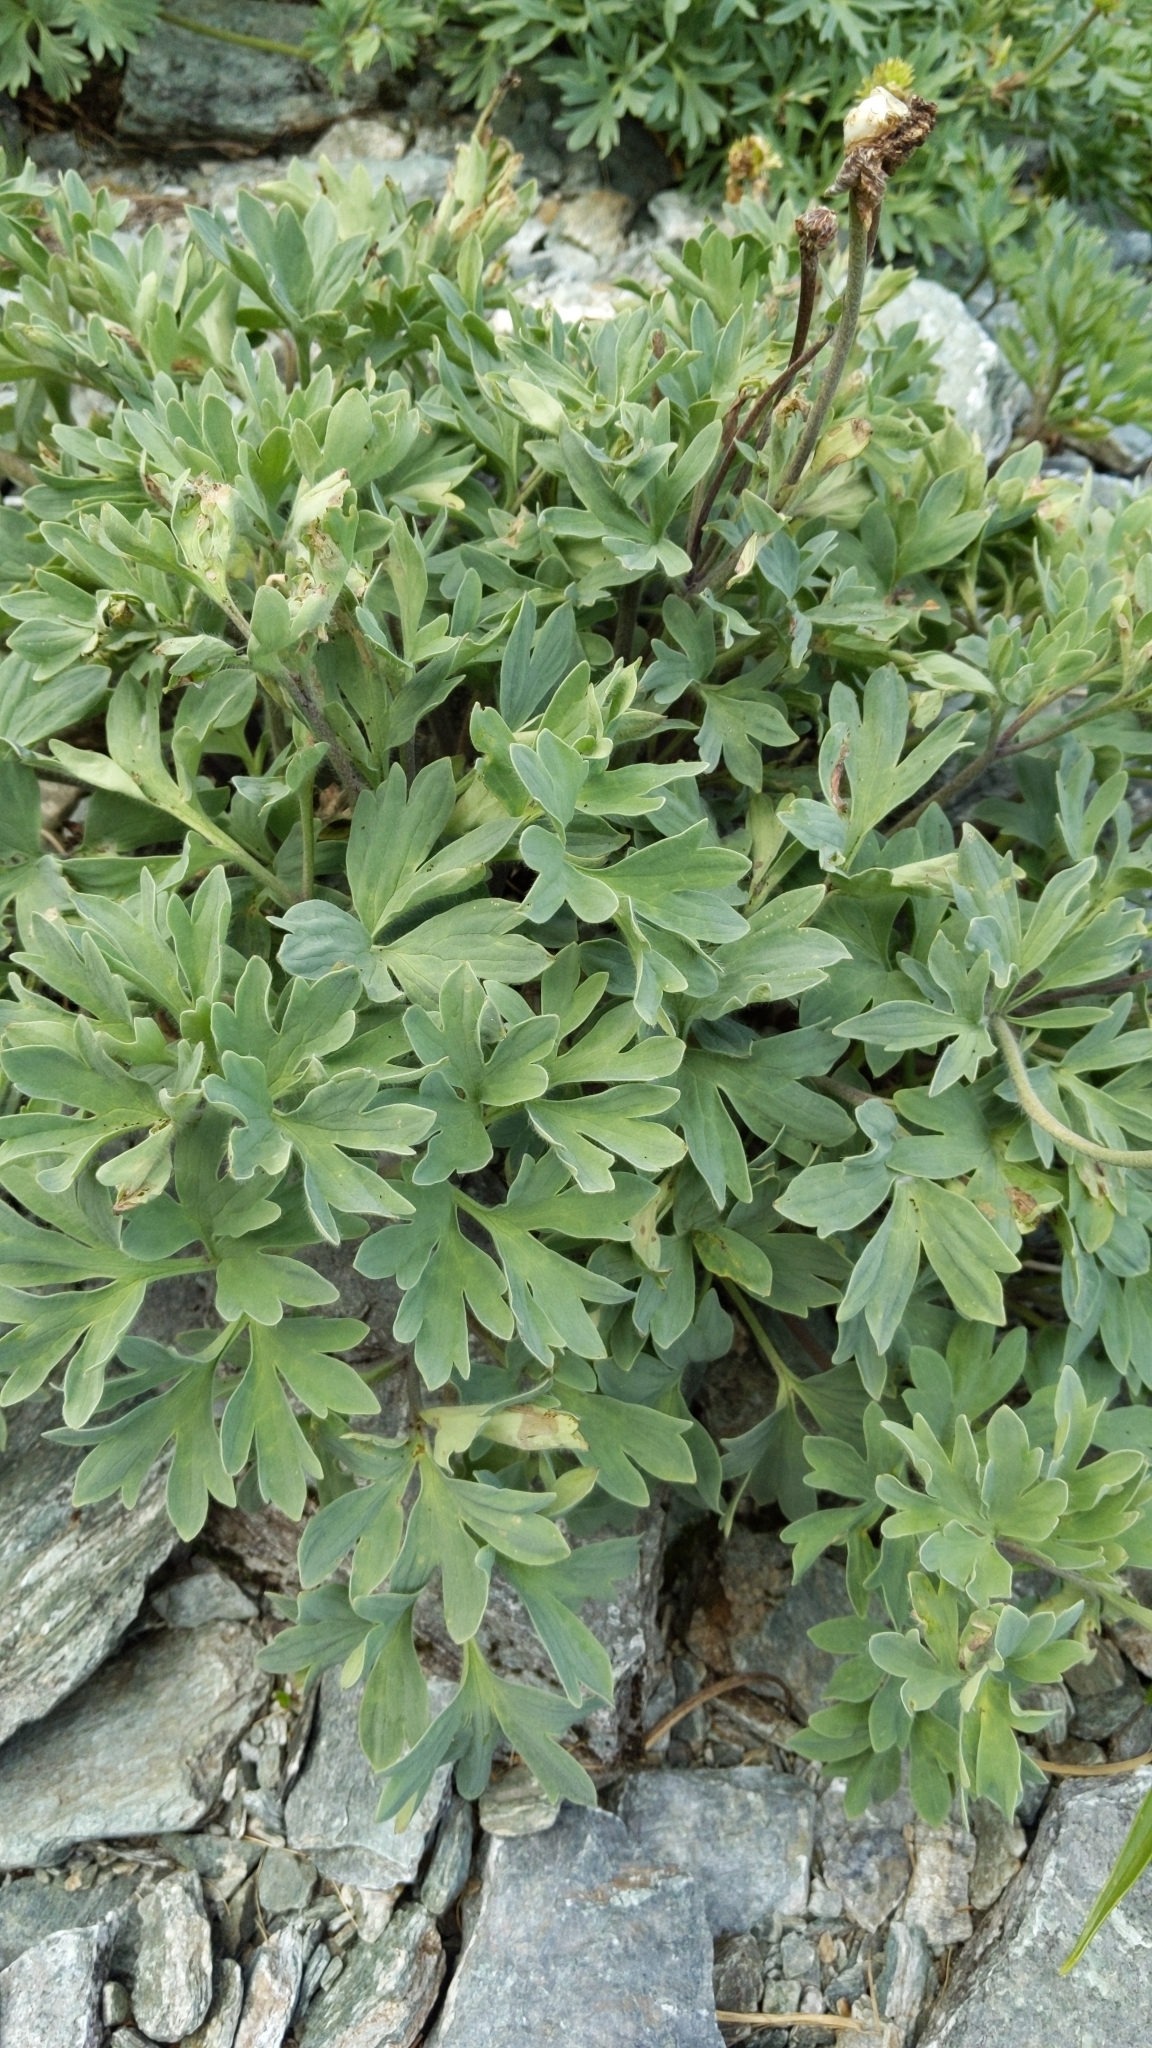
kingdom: Plantae
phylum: Tracheophyta
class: Magnoliopsida
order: Ranunculales
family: Ranunculaceae
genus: Ranunculus
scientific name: Ranunculus buchananii
